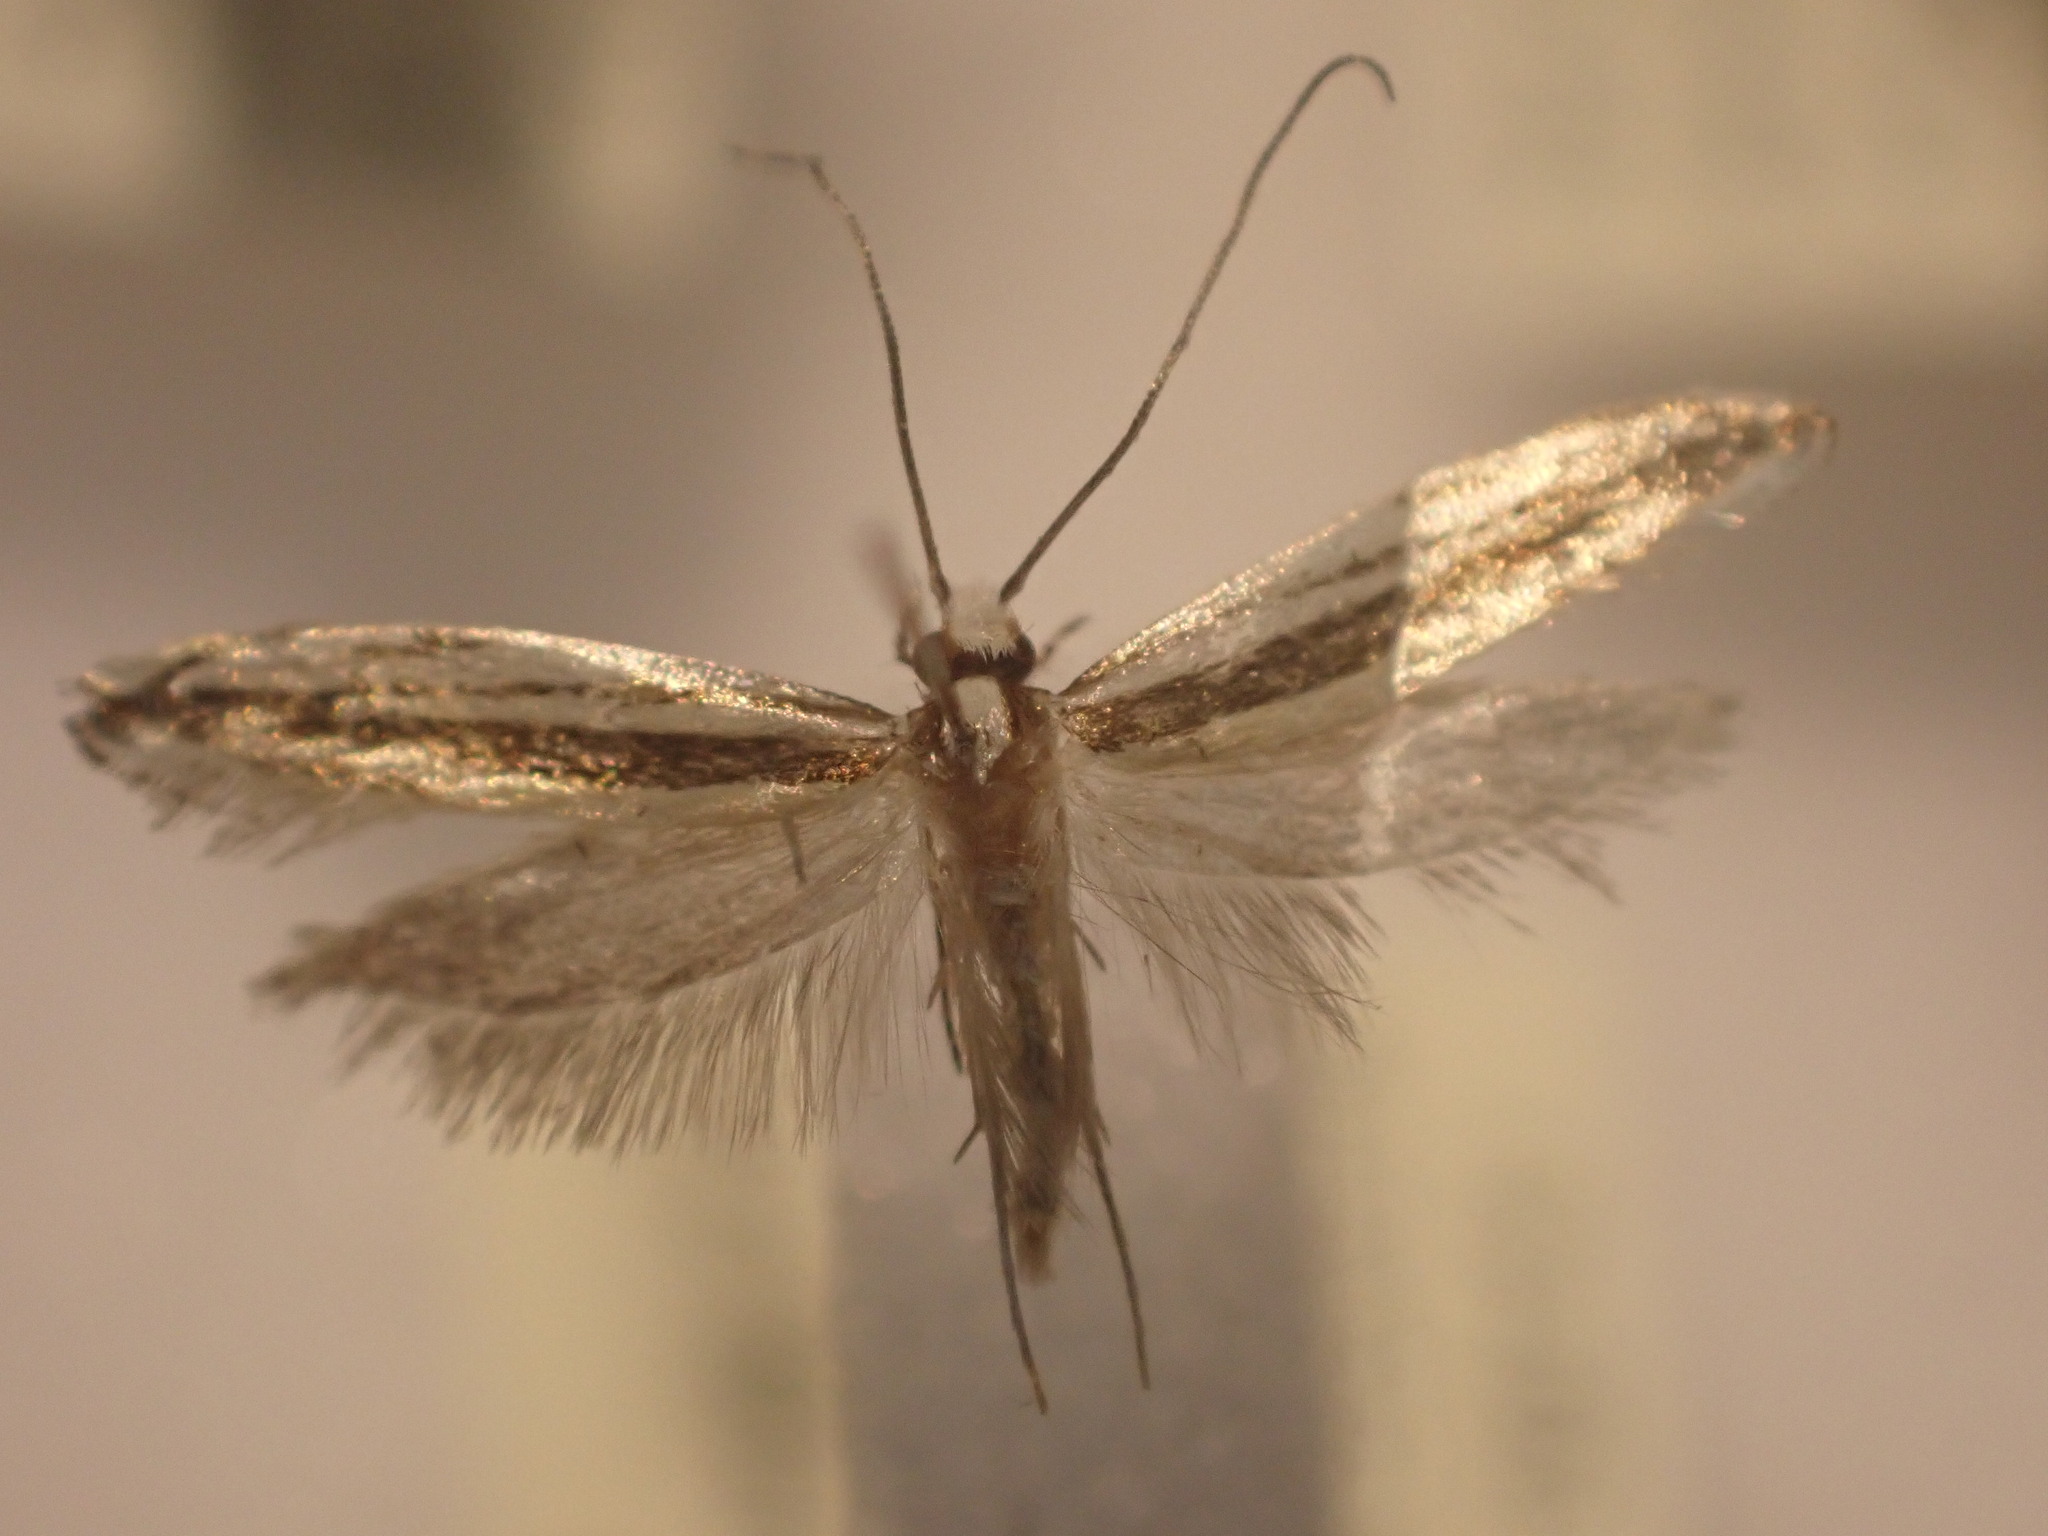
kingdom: Animalia
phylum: Arthropoda
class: Insecta
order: Lepidoptera
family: Tineidae
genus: Erechthias
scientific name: Erechthias stilbella
